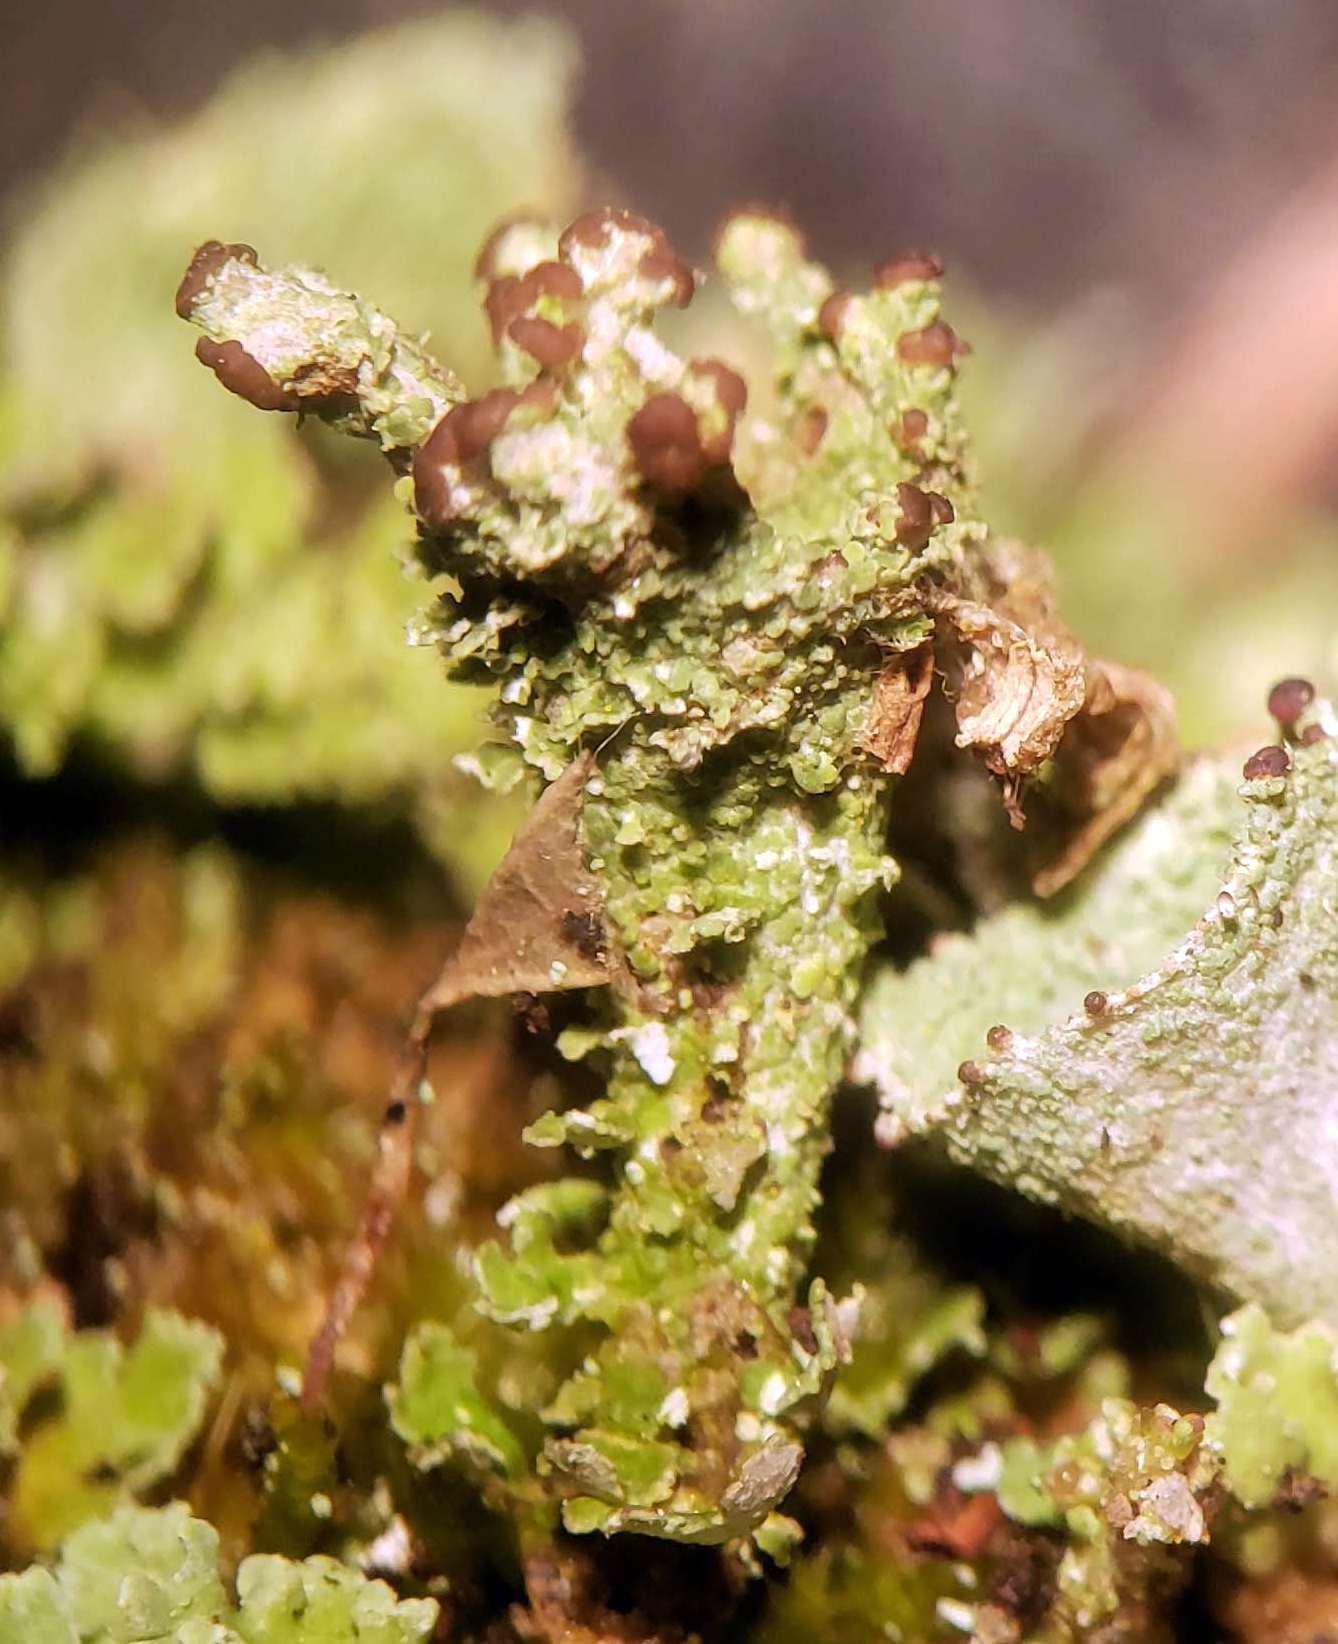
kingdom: Fungi
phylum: Ascomycota
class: Lecanoromycetes
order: Lecanorales
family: Cladoniaceae
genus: Cladonia
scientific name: Cladonia pyxidata
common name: Pebbled pixie cup
